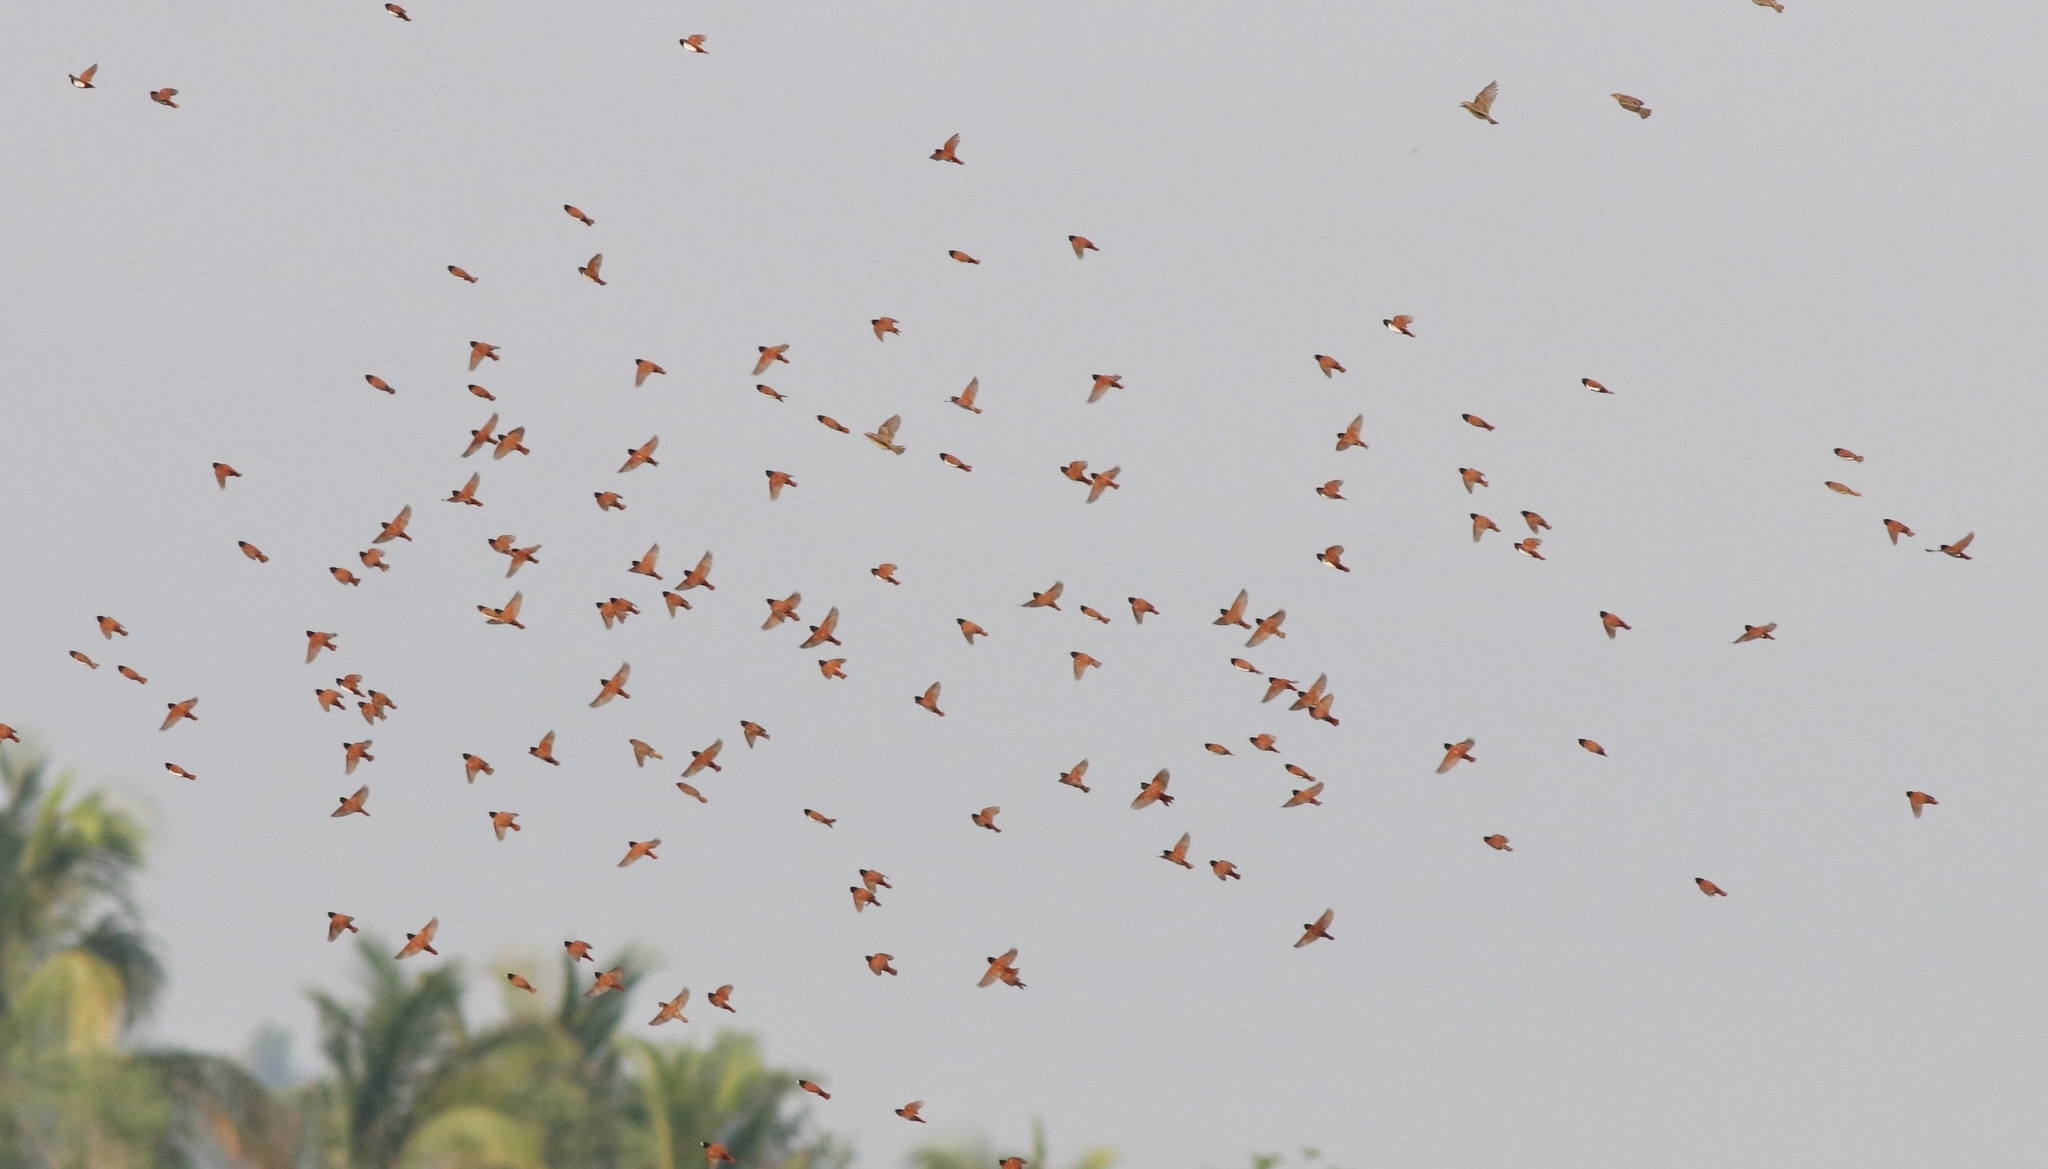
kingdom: Animalia
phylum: Chordata
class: Aves
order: Passeriformes
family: Estrildidae
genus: Lonchura
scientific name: Lonchura malacca
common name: Tricolored munia
